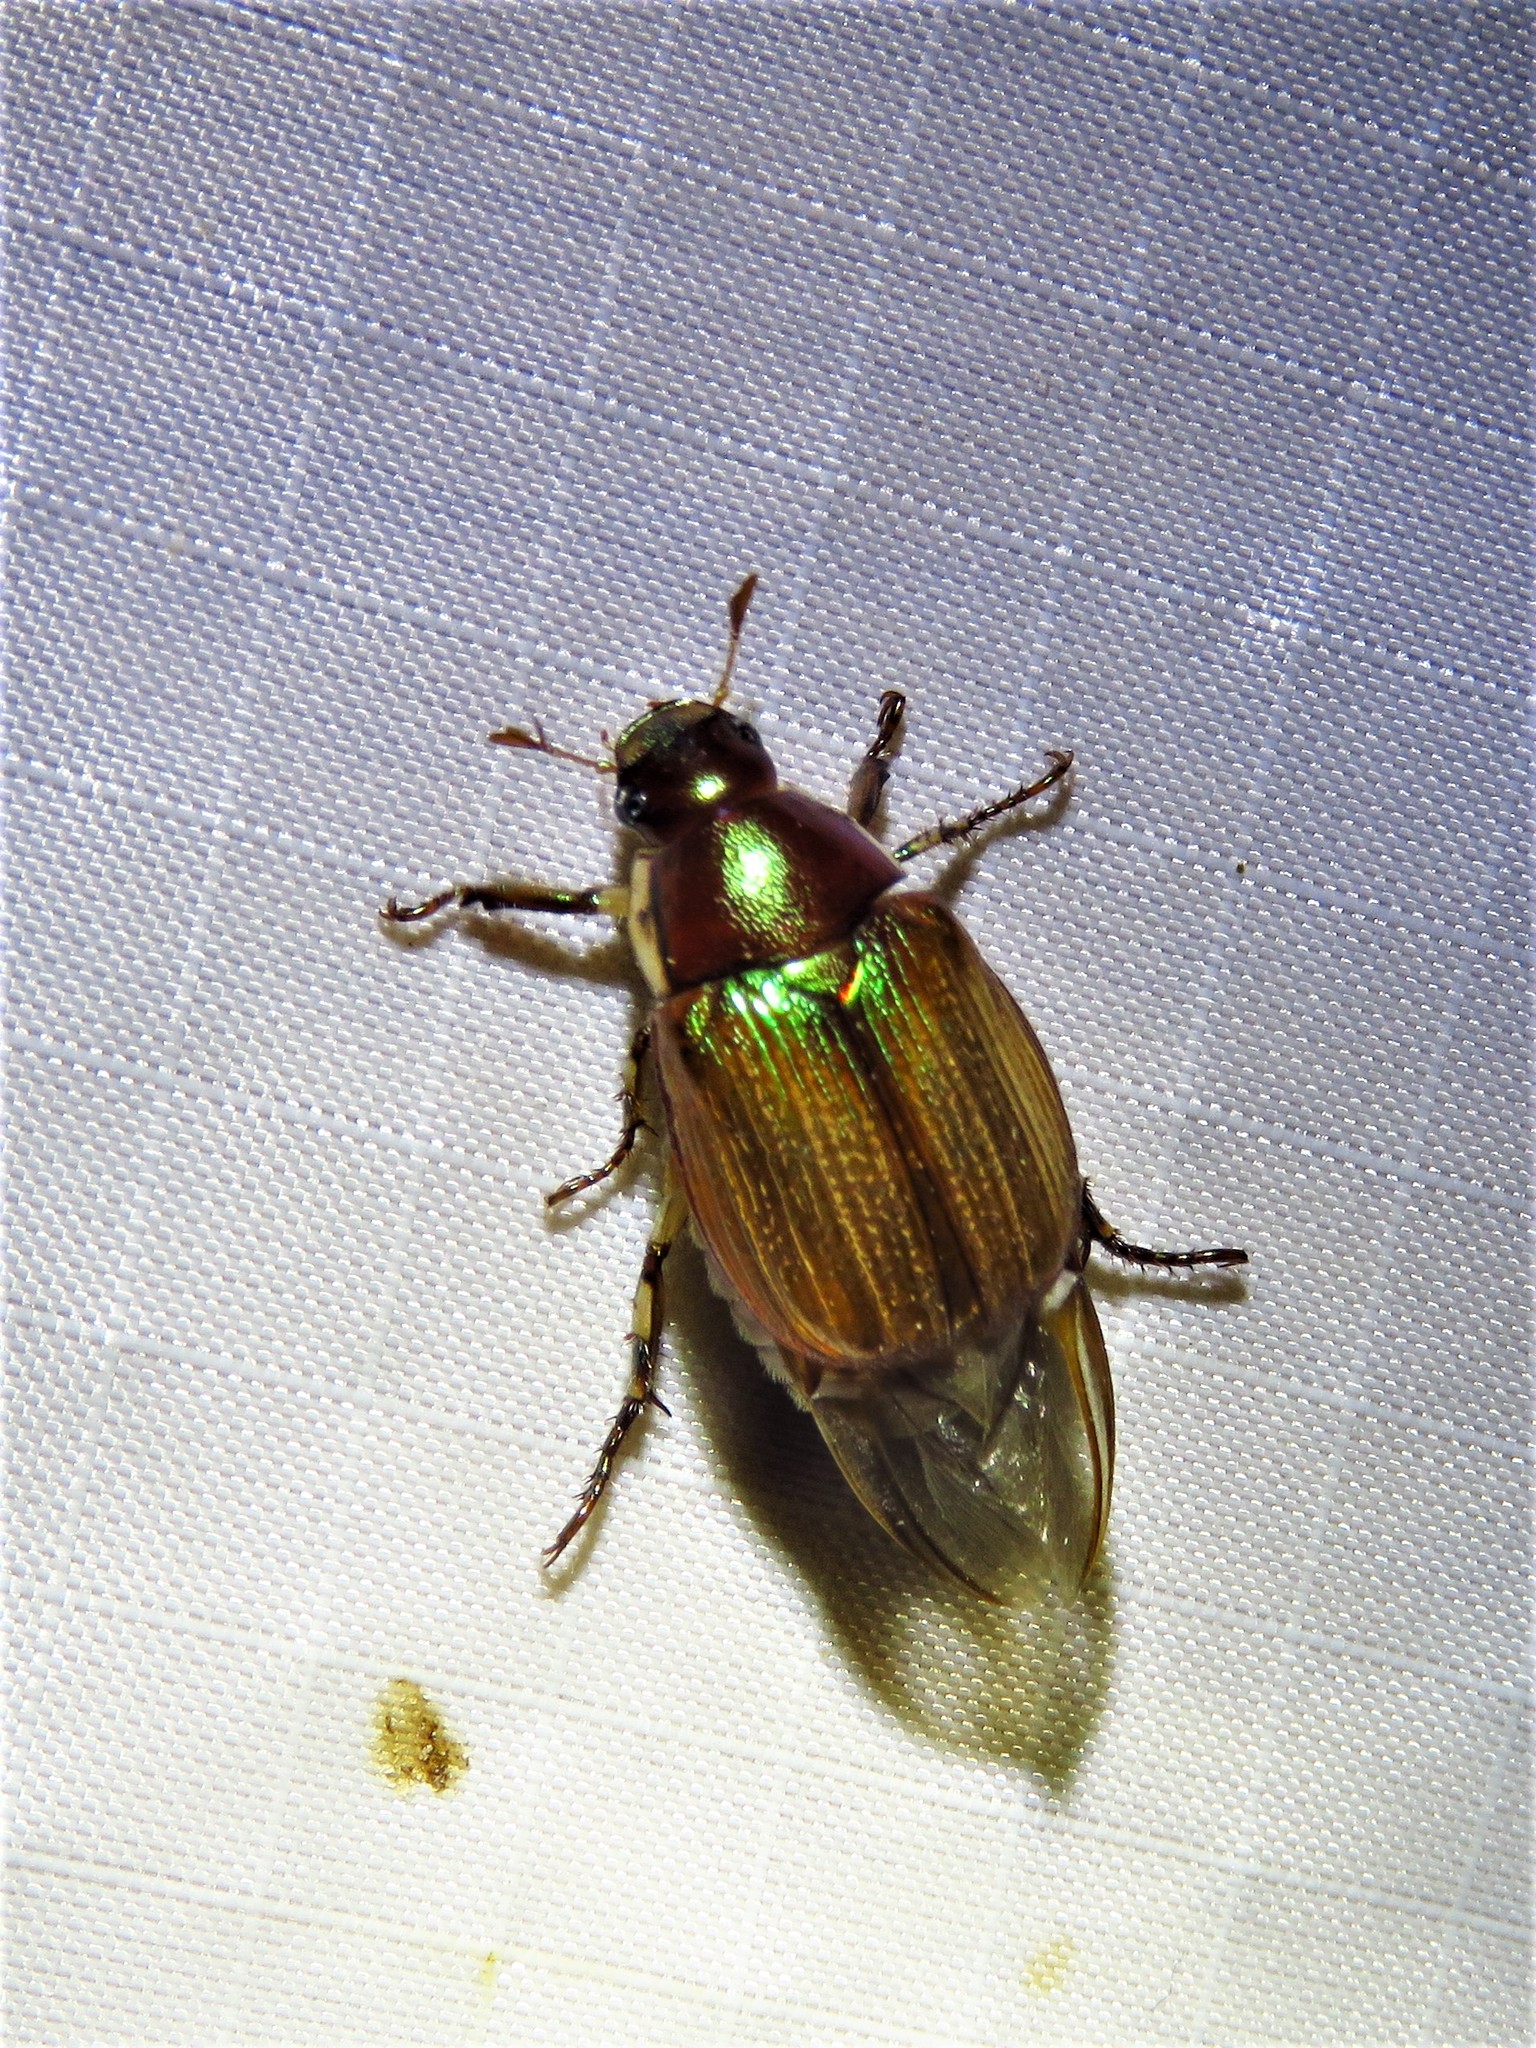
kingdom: Animalia
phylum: Arthropoda
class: Insecta
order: Coleoptera
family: Scarabaeidae
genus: Callistethus
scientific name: Callistethus marginatus
